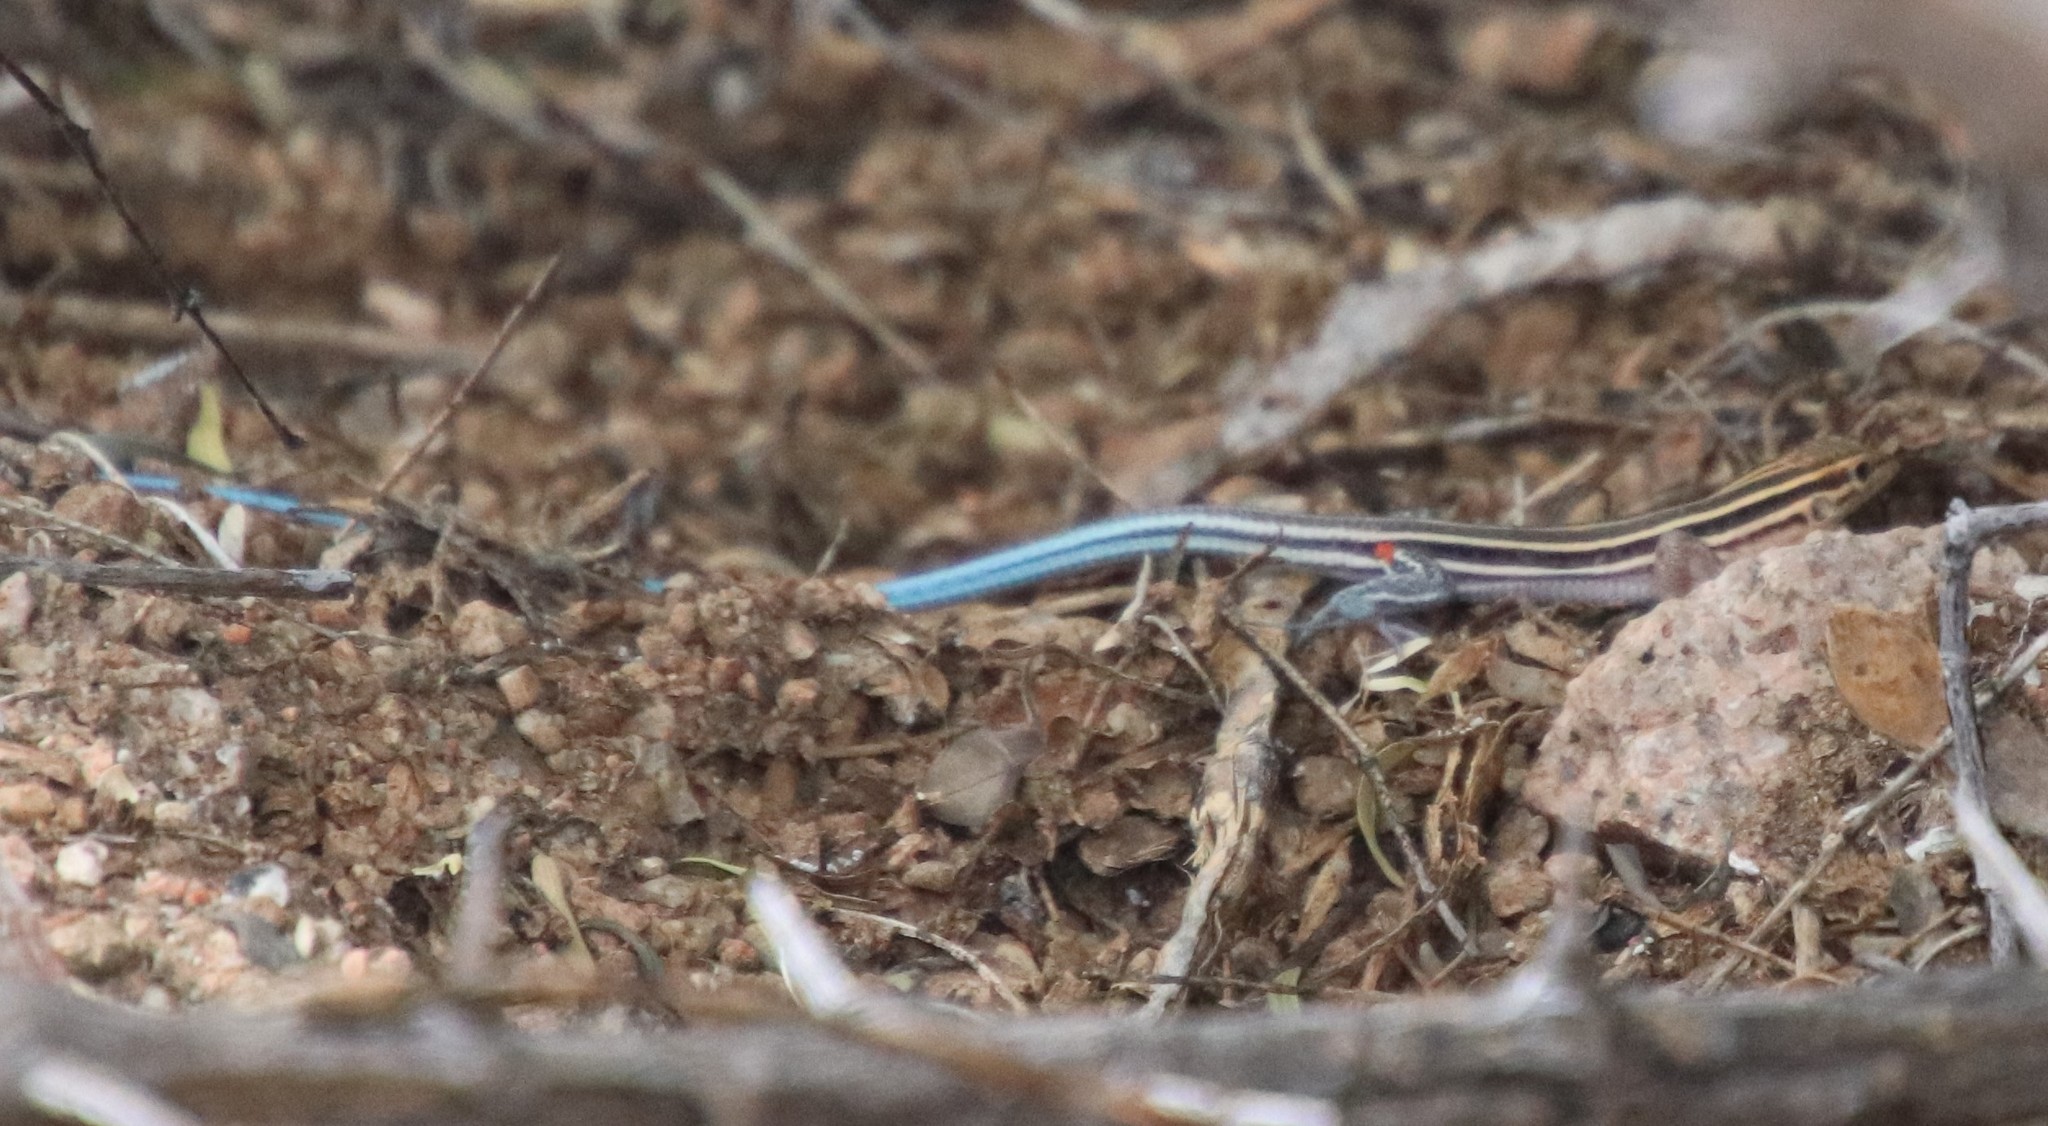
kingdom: Animalia
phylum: Chordata
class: Squamata
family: Teiidae
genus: Aspidoscelis
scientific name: Aspidoscelis hyperythrus
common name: Orange-throated race-runner
